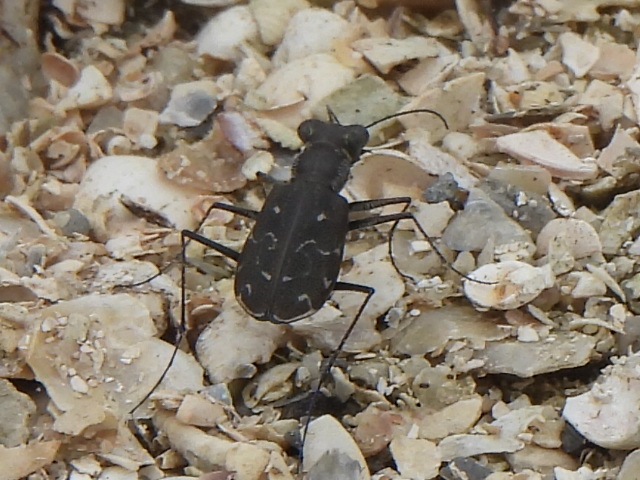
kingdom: Animalia
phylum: Arthropoda
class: Insecta
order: Coleoptera
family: Carabidae
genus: Cicindela
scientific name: Cicindela trifasciata
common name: Mudflat tiger beetle
